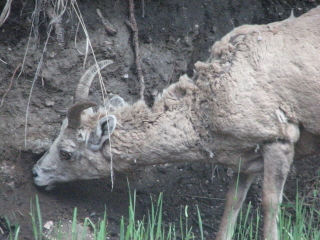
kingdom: Animalia
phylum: Chordata
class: Mammalia
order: Artiodactyla
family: Bovidae
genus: Ovis
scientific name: Ovis canadensis
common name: Bighorn sheep
